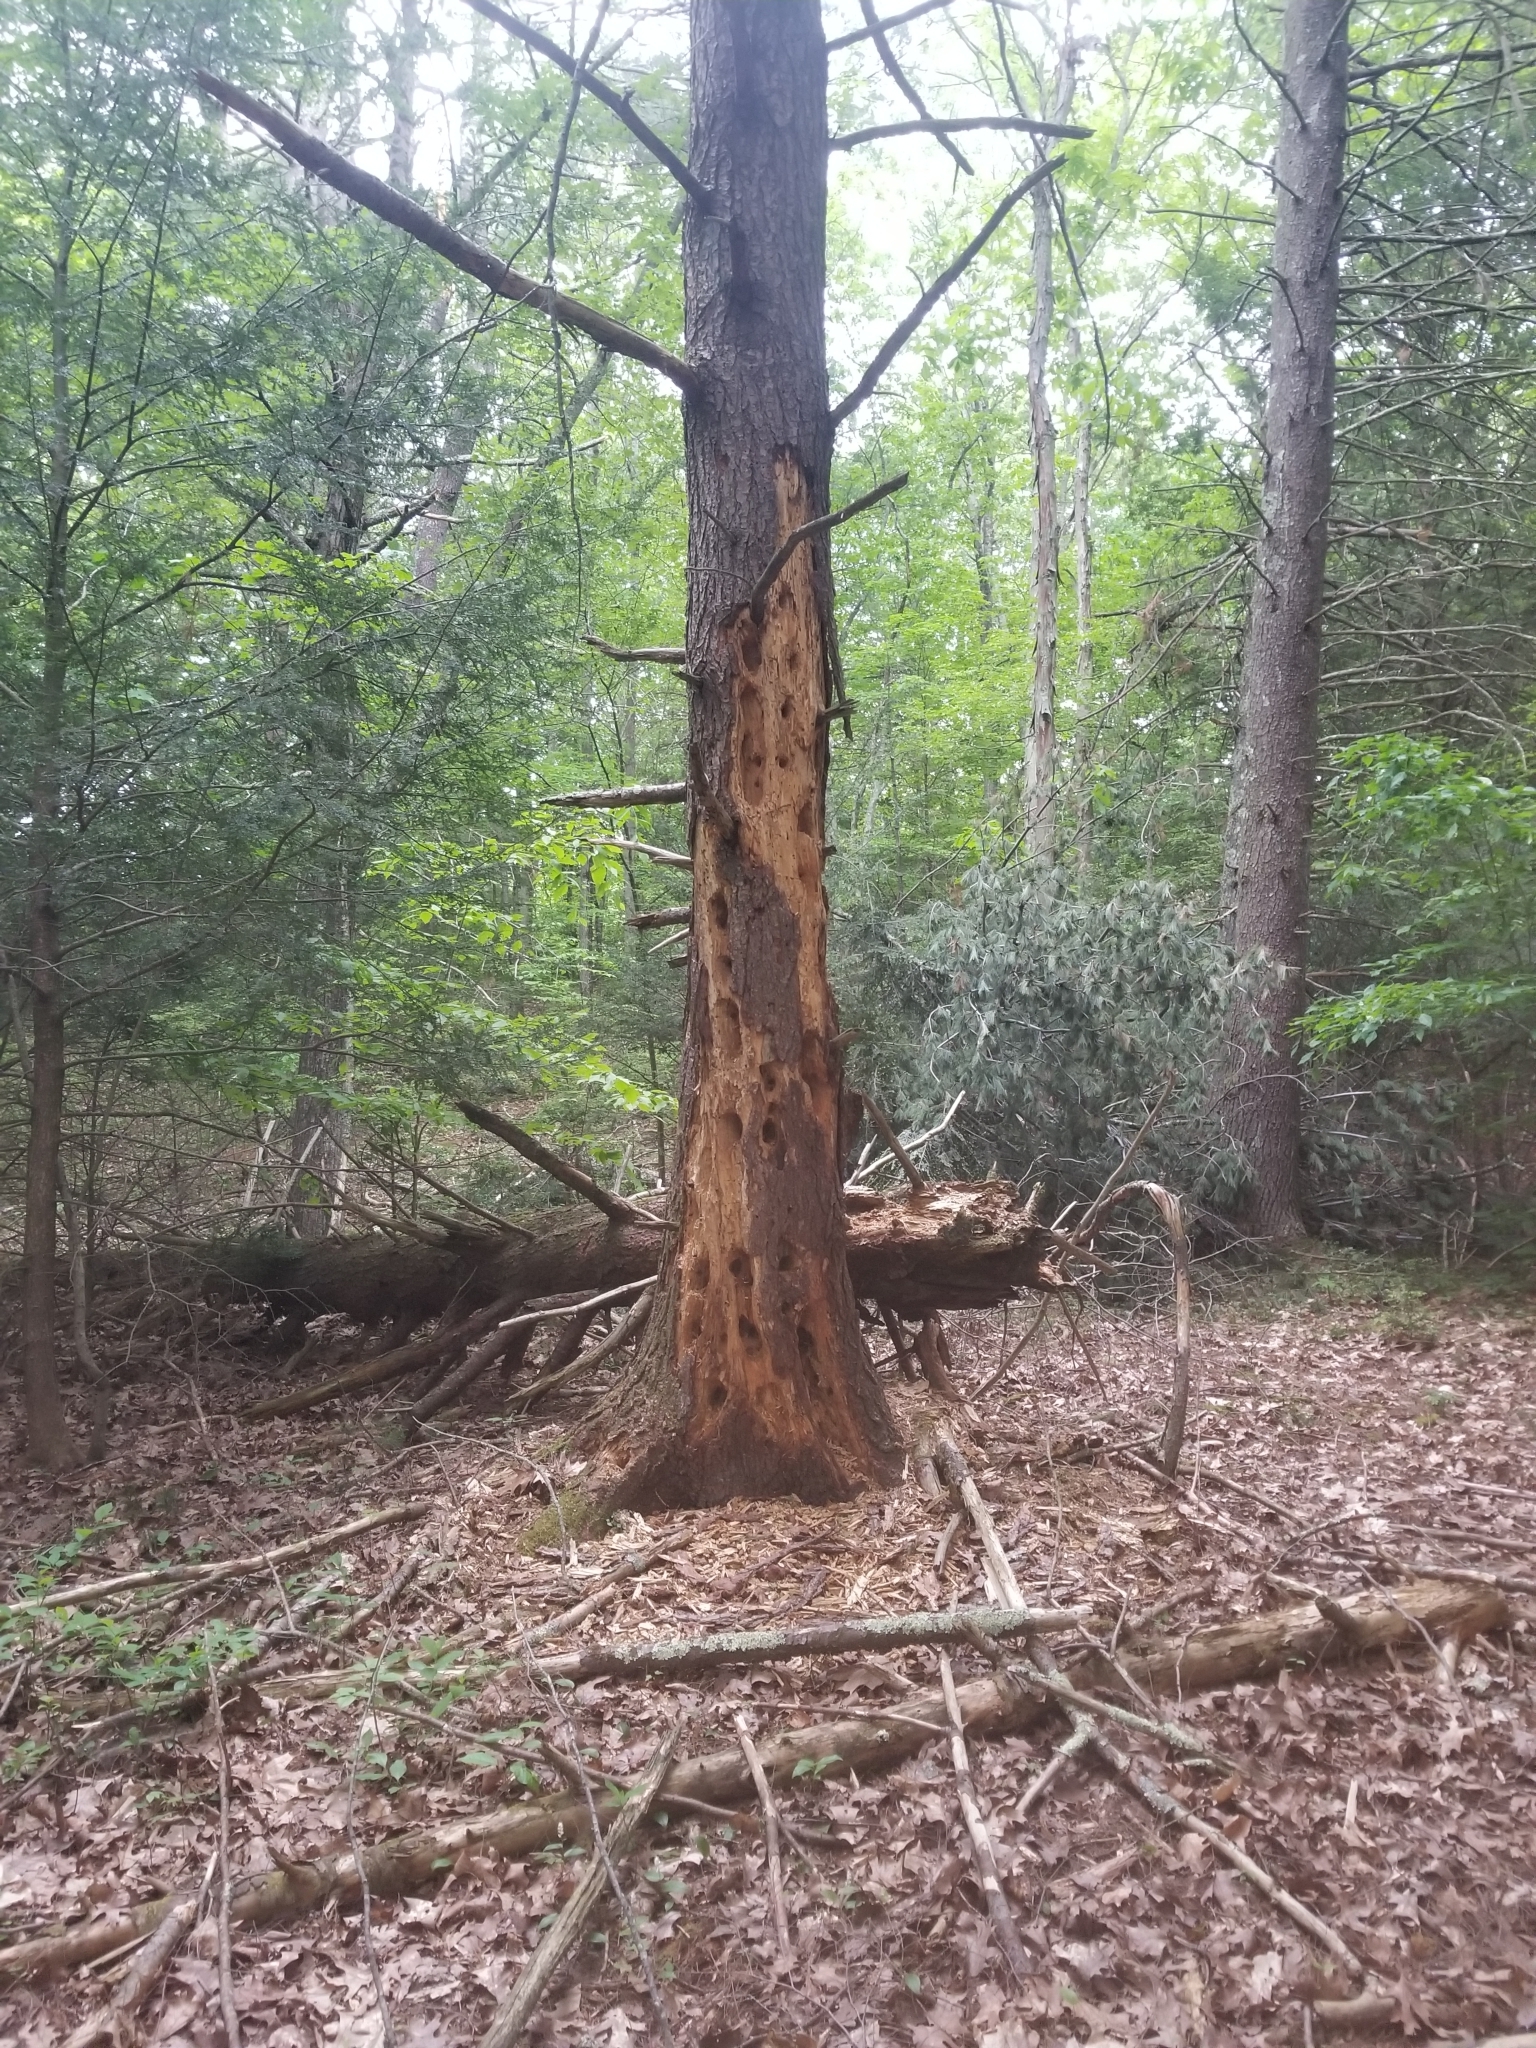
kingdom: Animalia
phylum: Chordata
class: Aves
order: Piciformes
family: Picidae
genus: Dryocopus
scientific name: Dryocopus pileatus
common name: Pileated woodpecker
